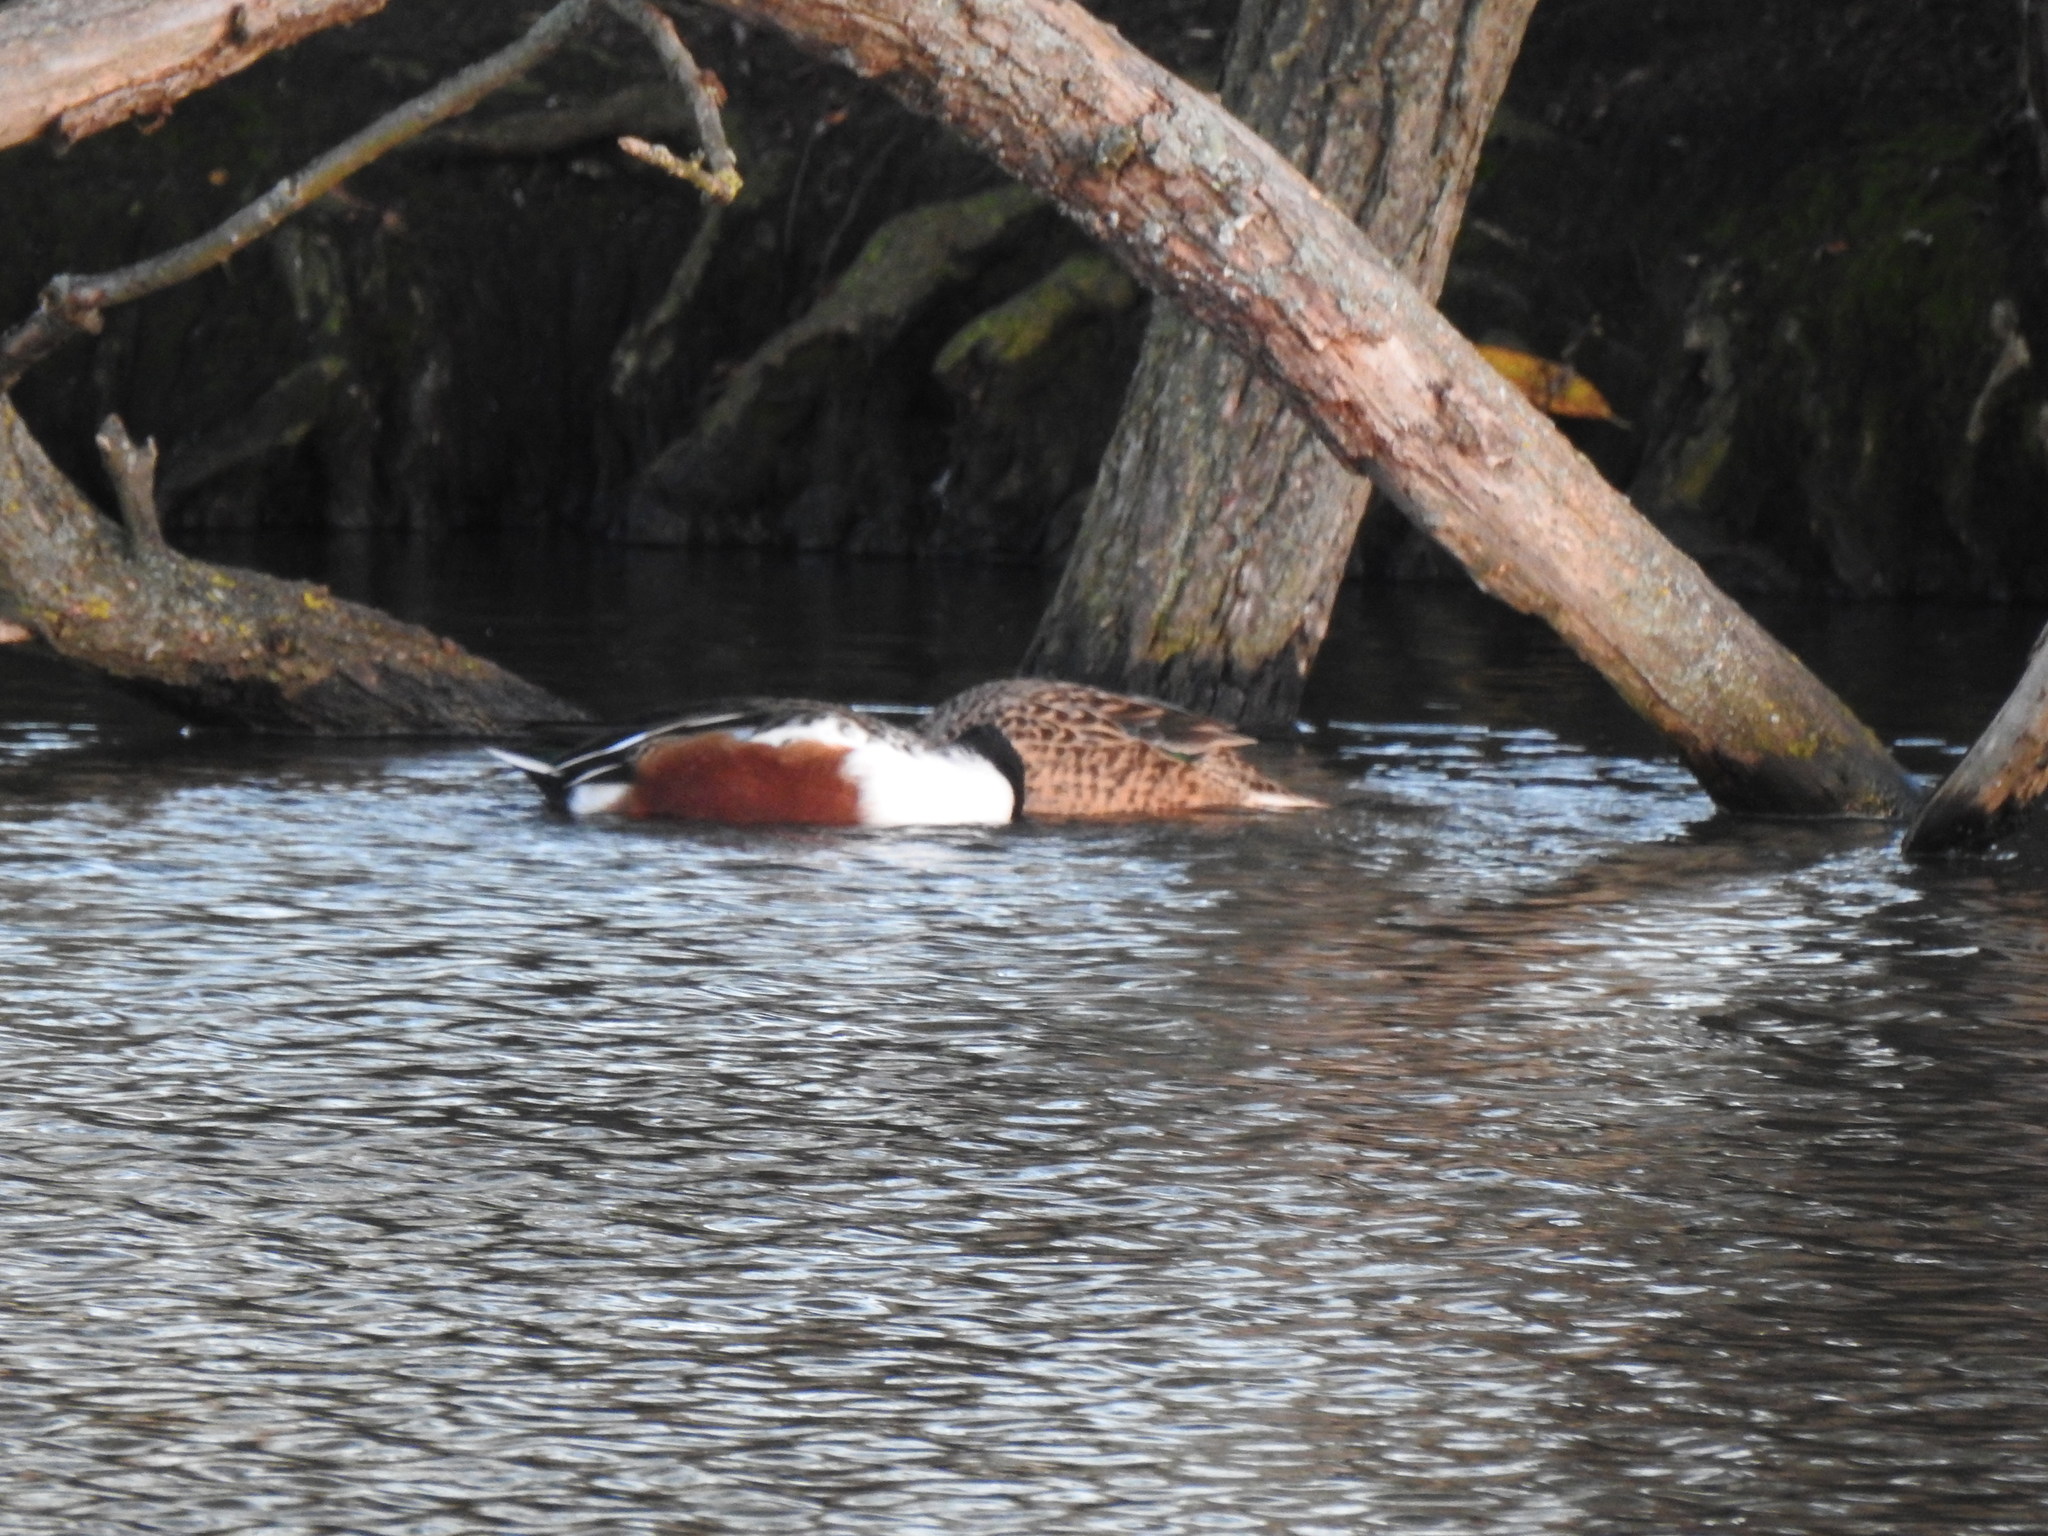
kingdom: Animalia
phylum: Chordata
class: Aves
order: Anseriformes
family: Anatidae
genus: Spatula
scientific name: Spatula clypeata
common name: Northern shoveler
